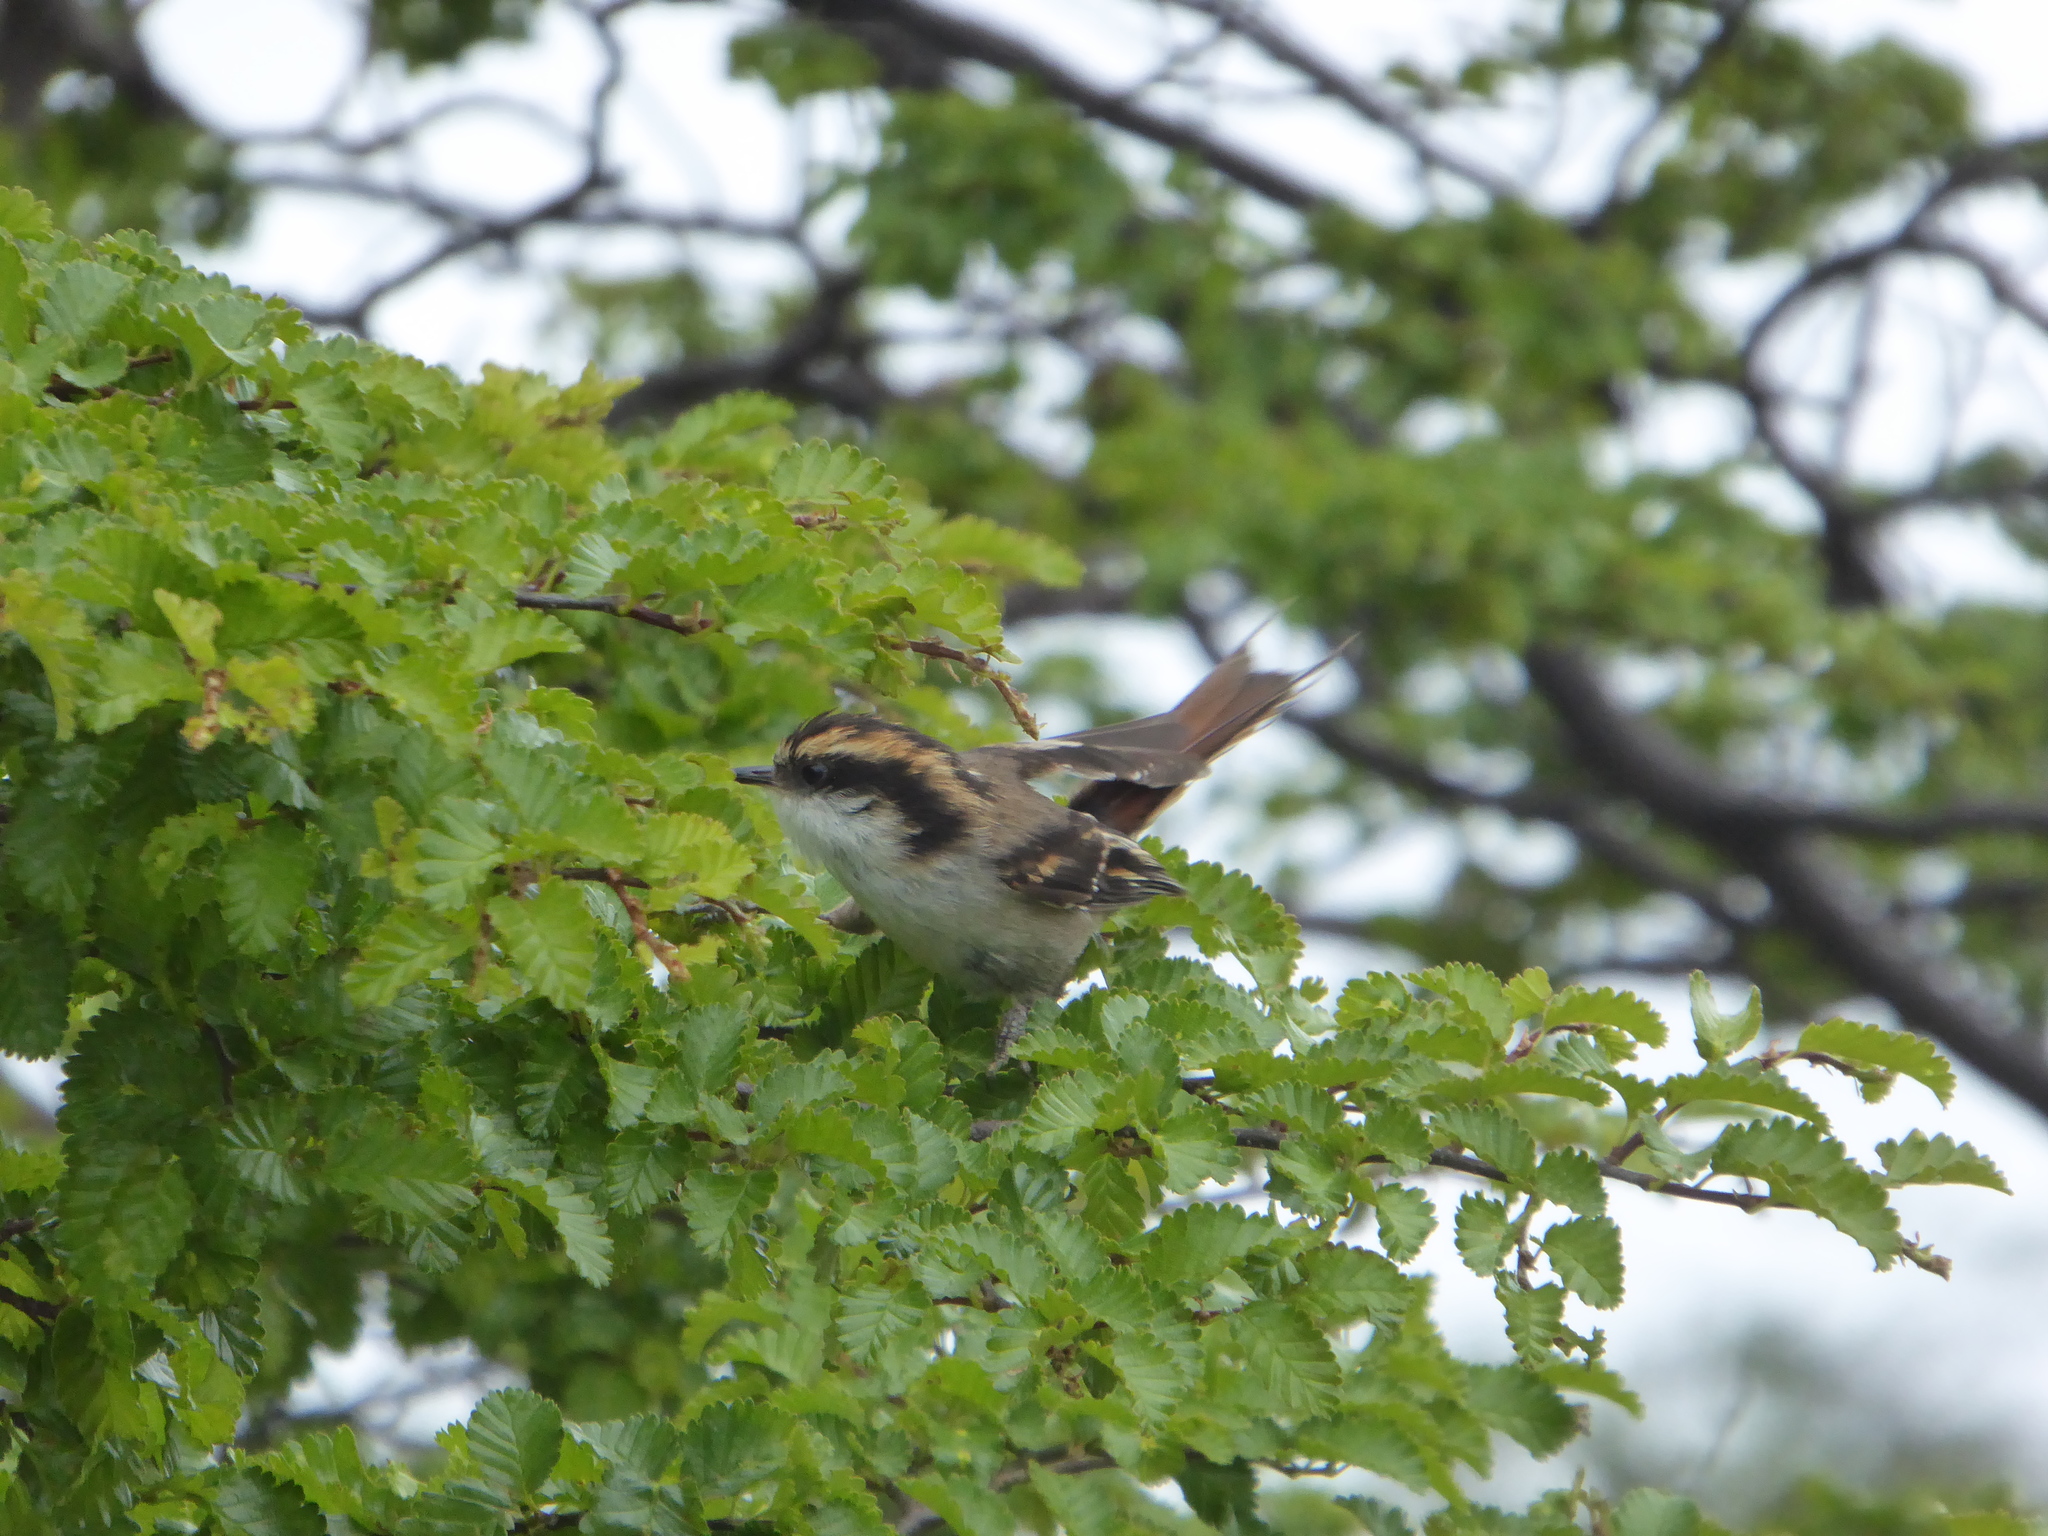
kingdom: Animalia
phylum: Chordata
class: Aves
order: Passeriformes
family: Furnariidae
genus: Aphrastura
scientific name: Aphrastura spinicauda
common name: Thorn-tailed rayadito
